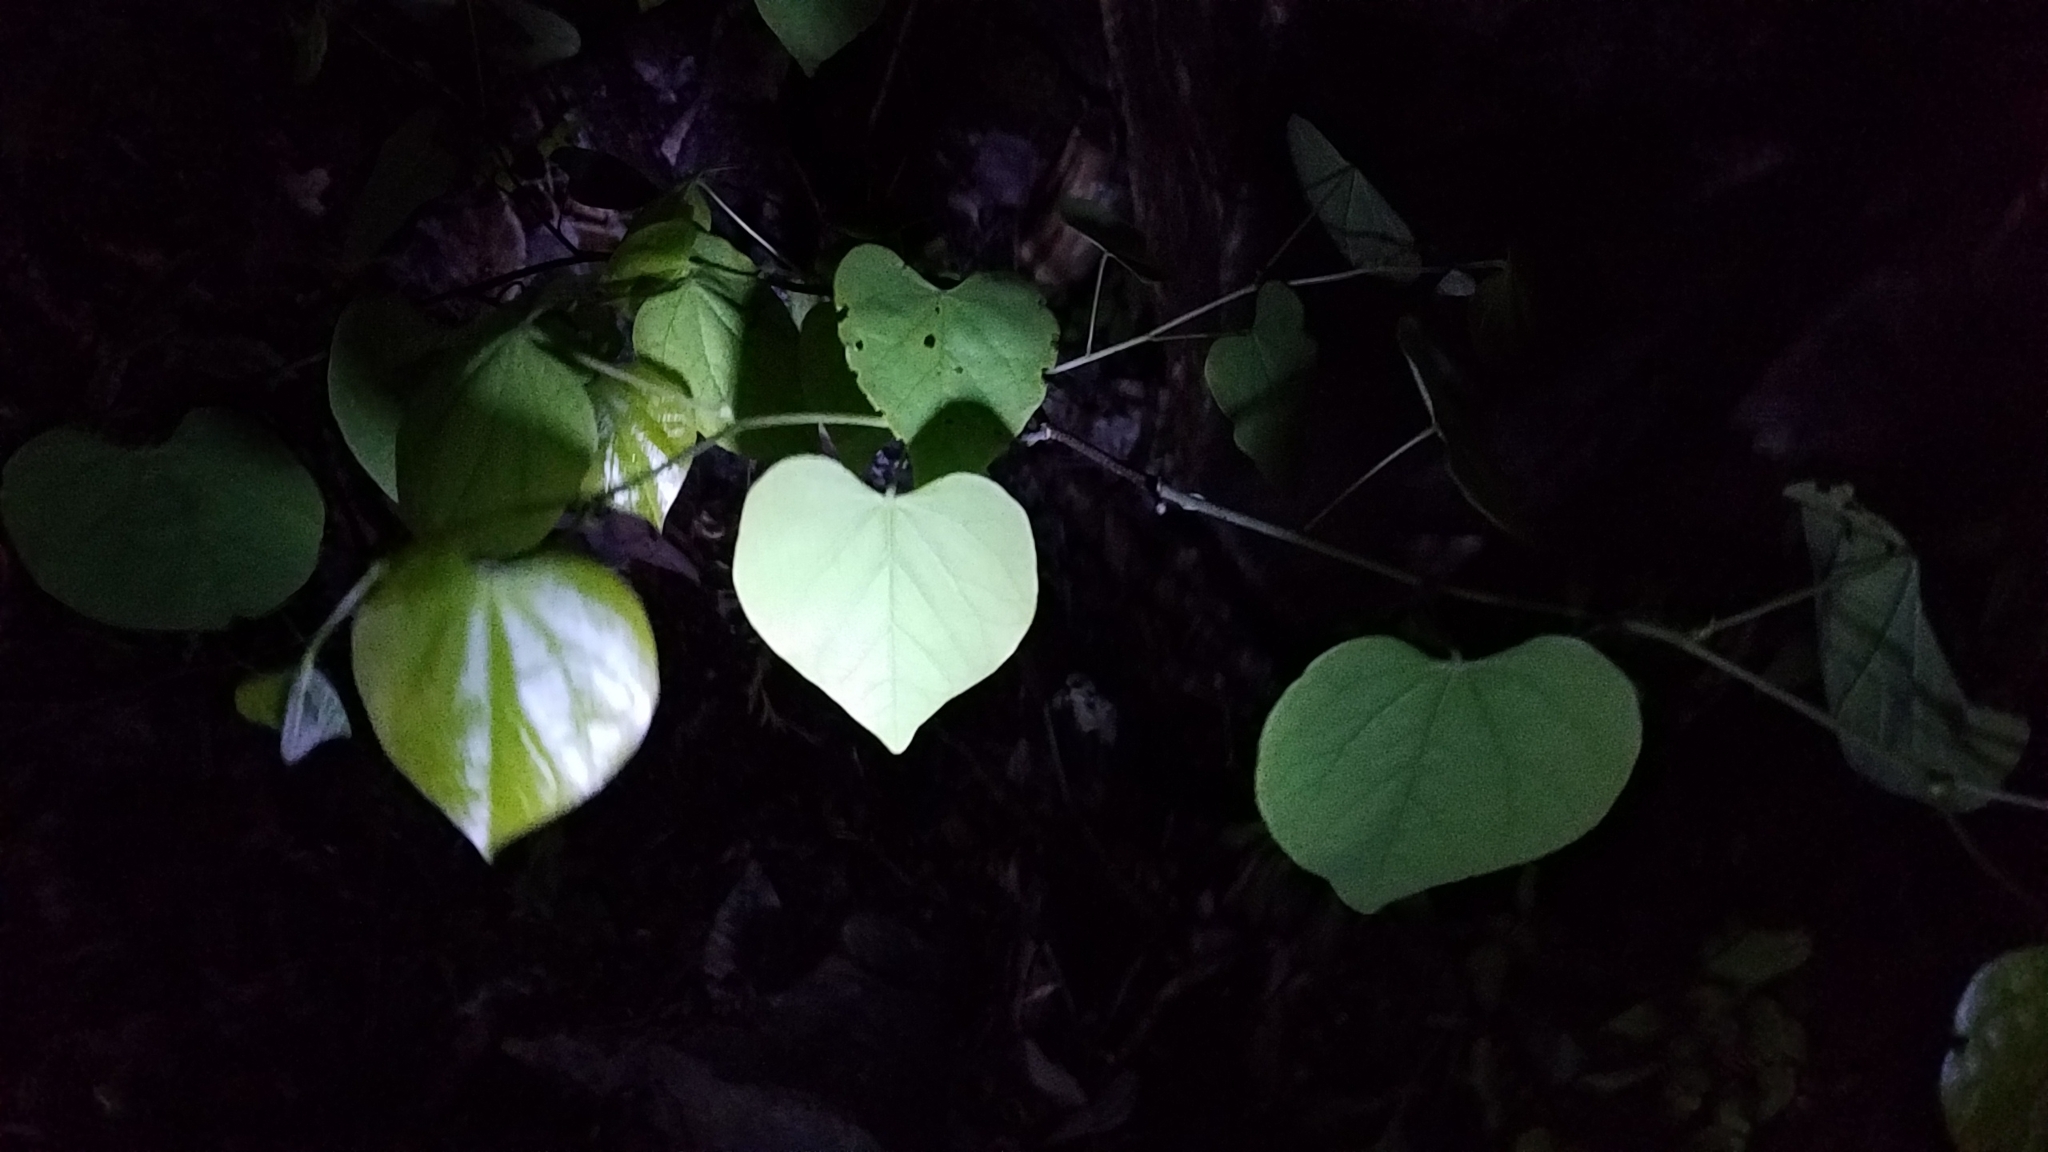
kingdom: Plantae
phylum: Tracheophyta
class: Magnoliopsida
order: Fabales
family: Fabaceae
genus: Cercis
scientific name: Cercis canadensis
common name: Eastern redbud
